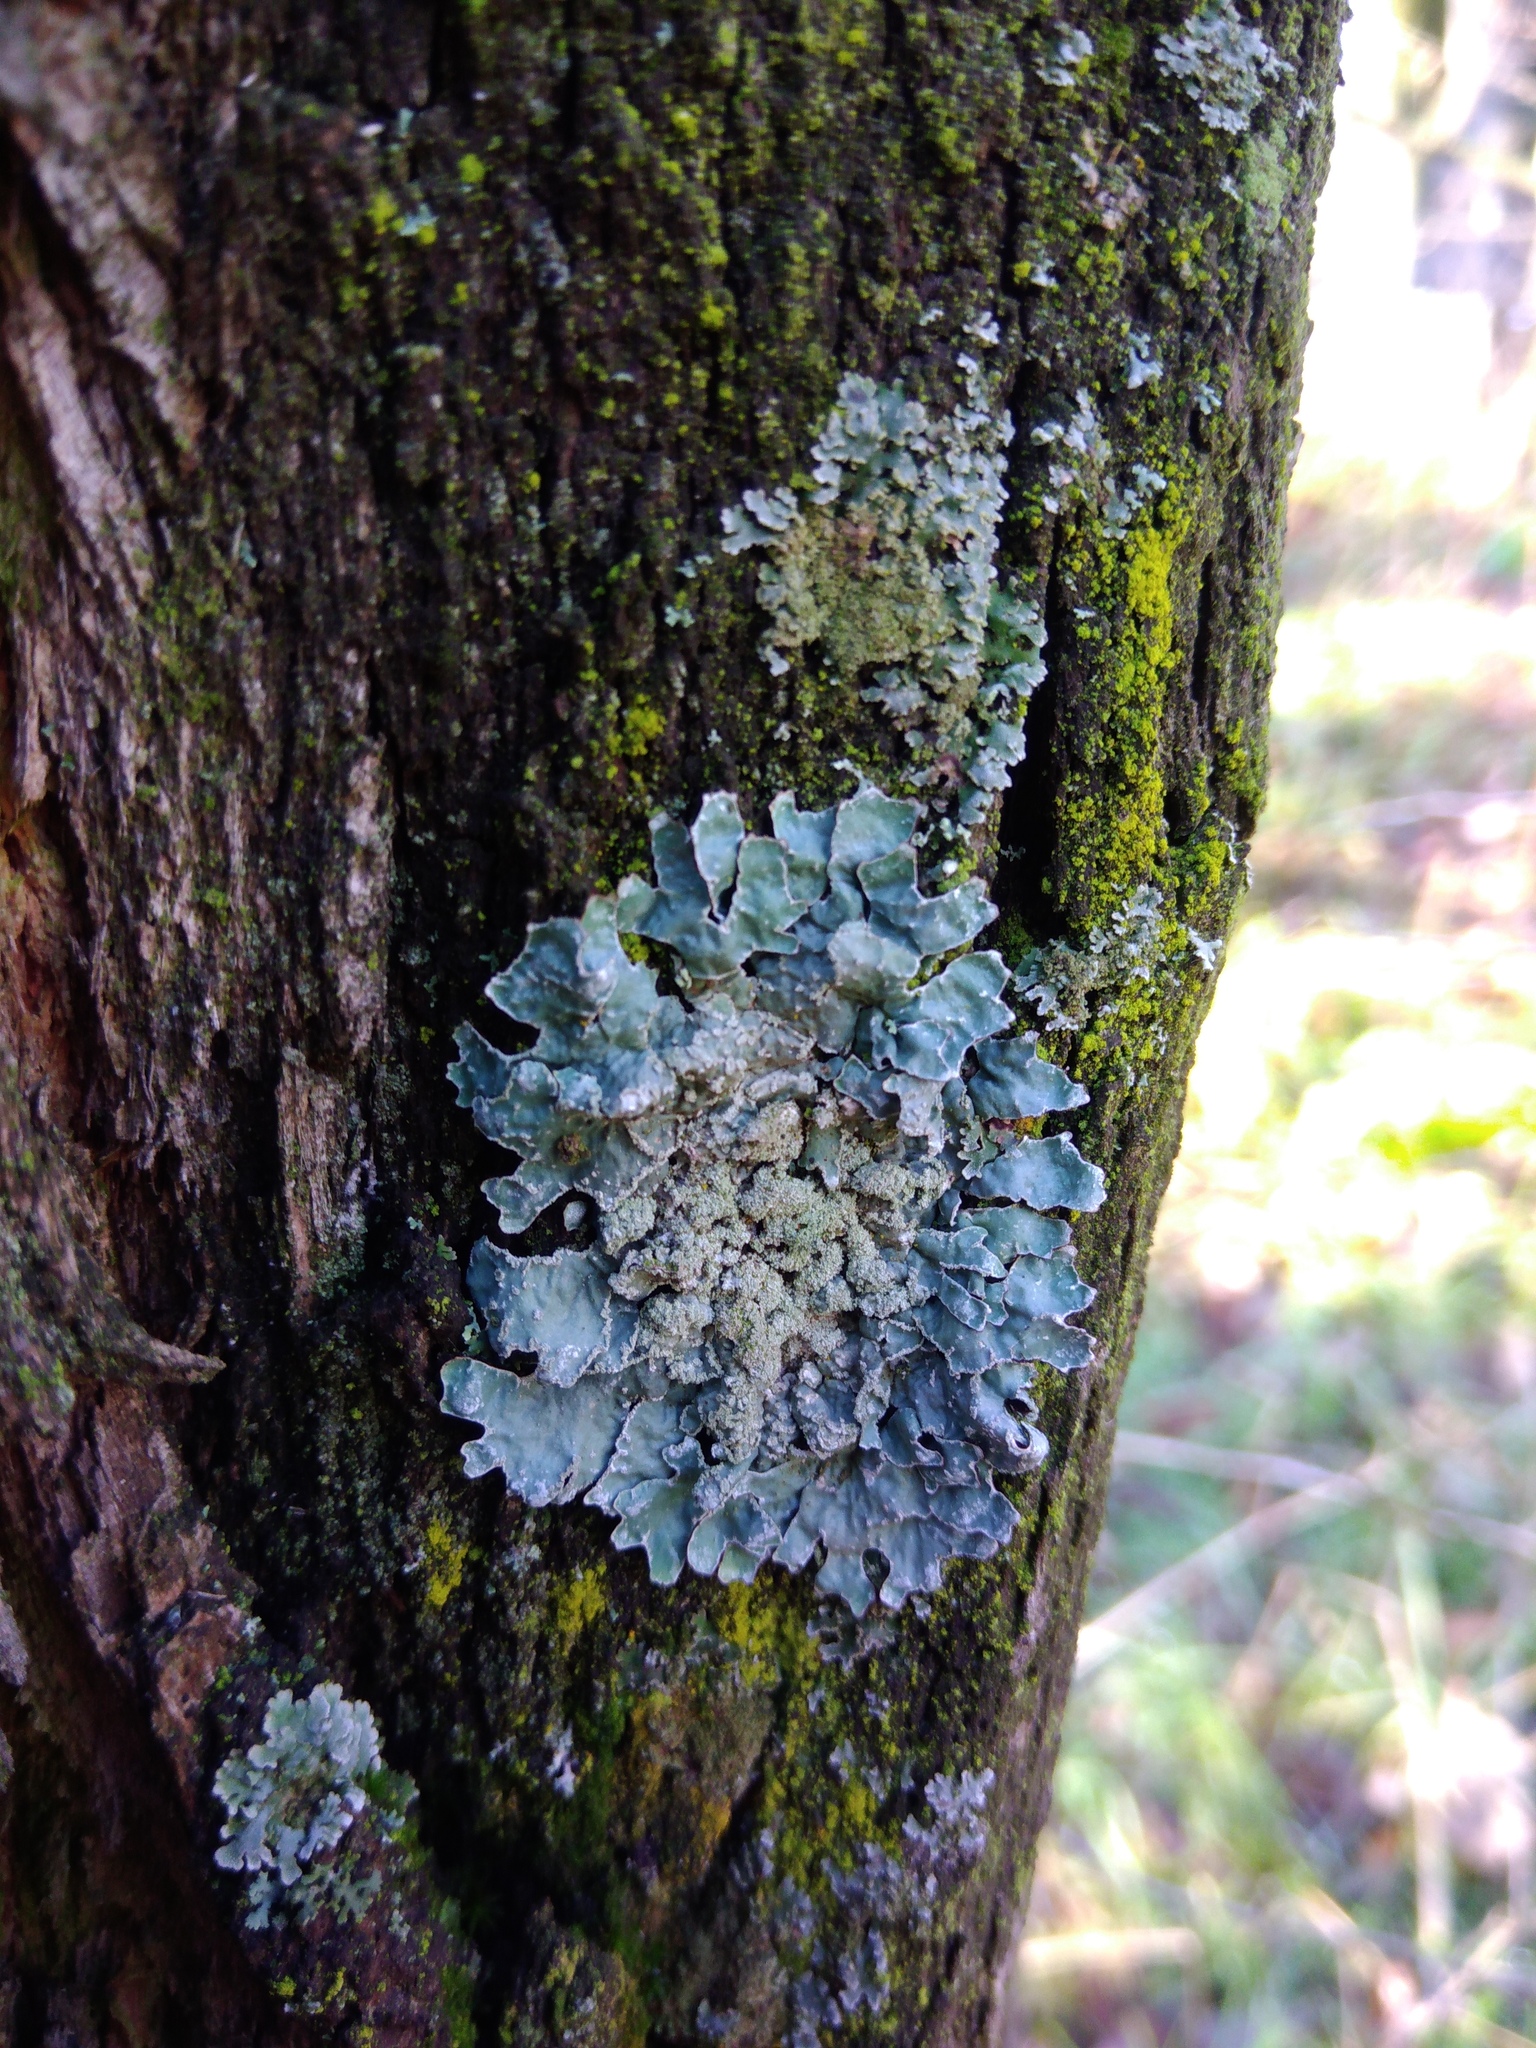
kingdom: Fungi
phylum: Ascomycota
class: Lecanoromycetes
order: Lecanorales
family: Parmeliaceae
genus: Parmelia
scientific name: Parmelia sulcata
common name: Netted shield lichen
